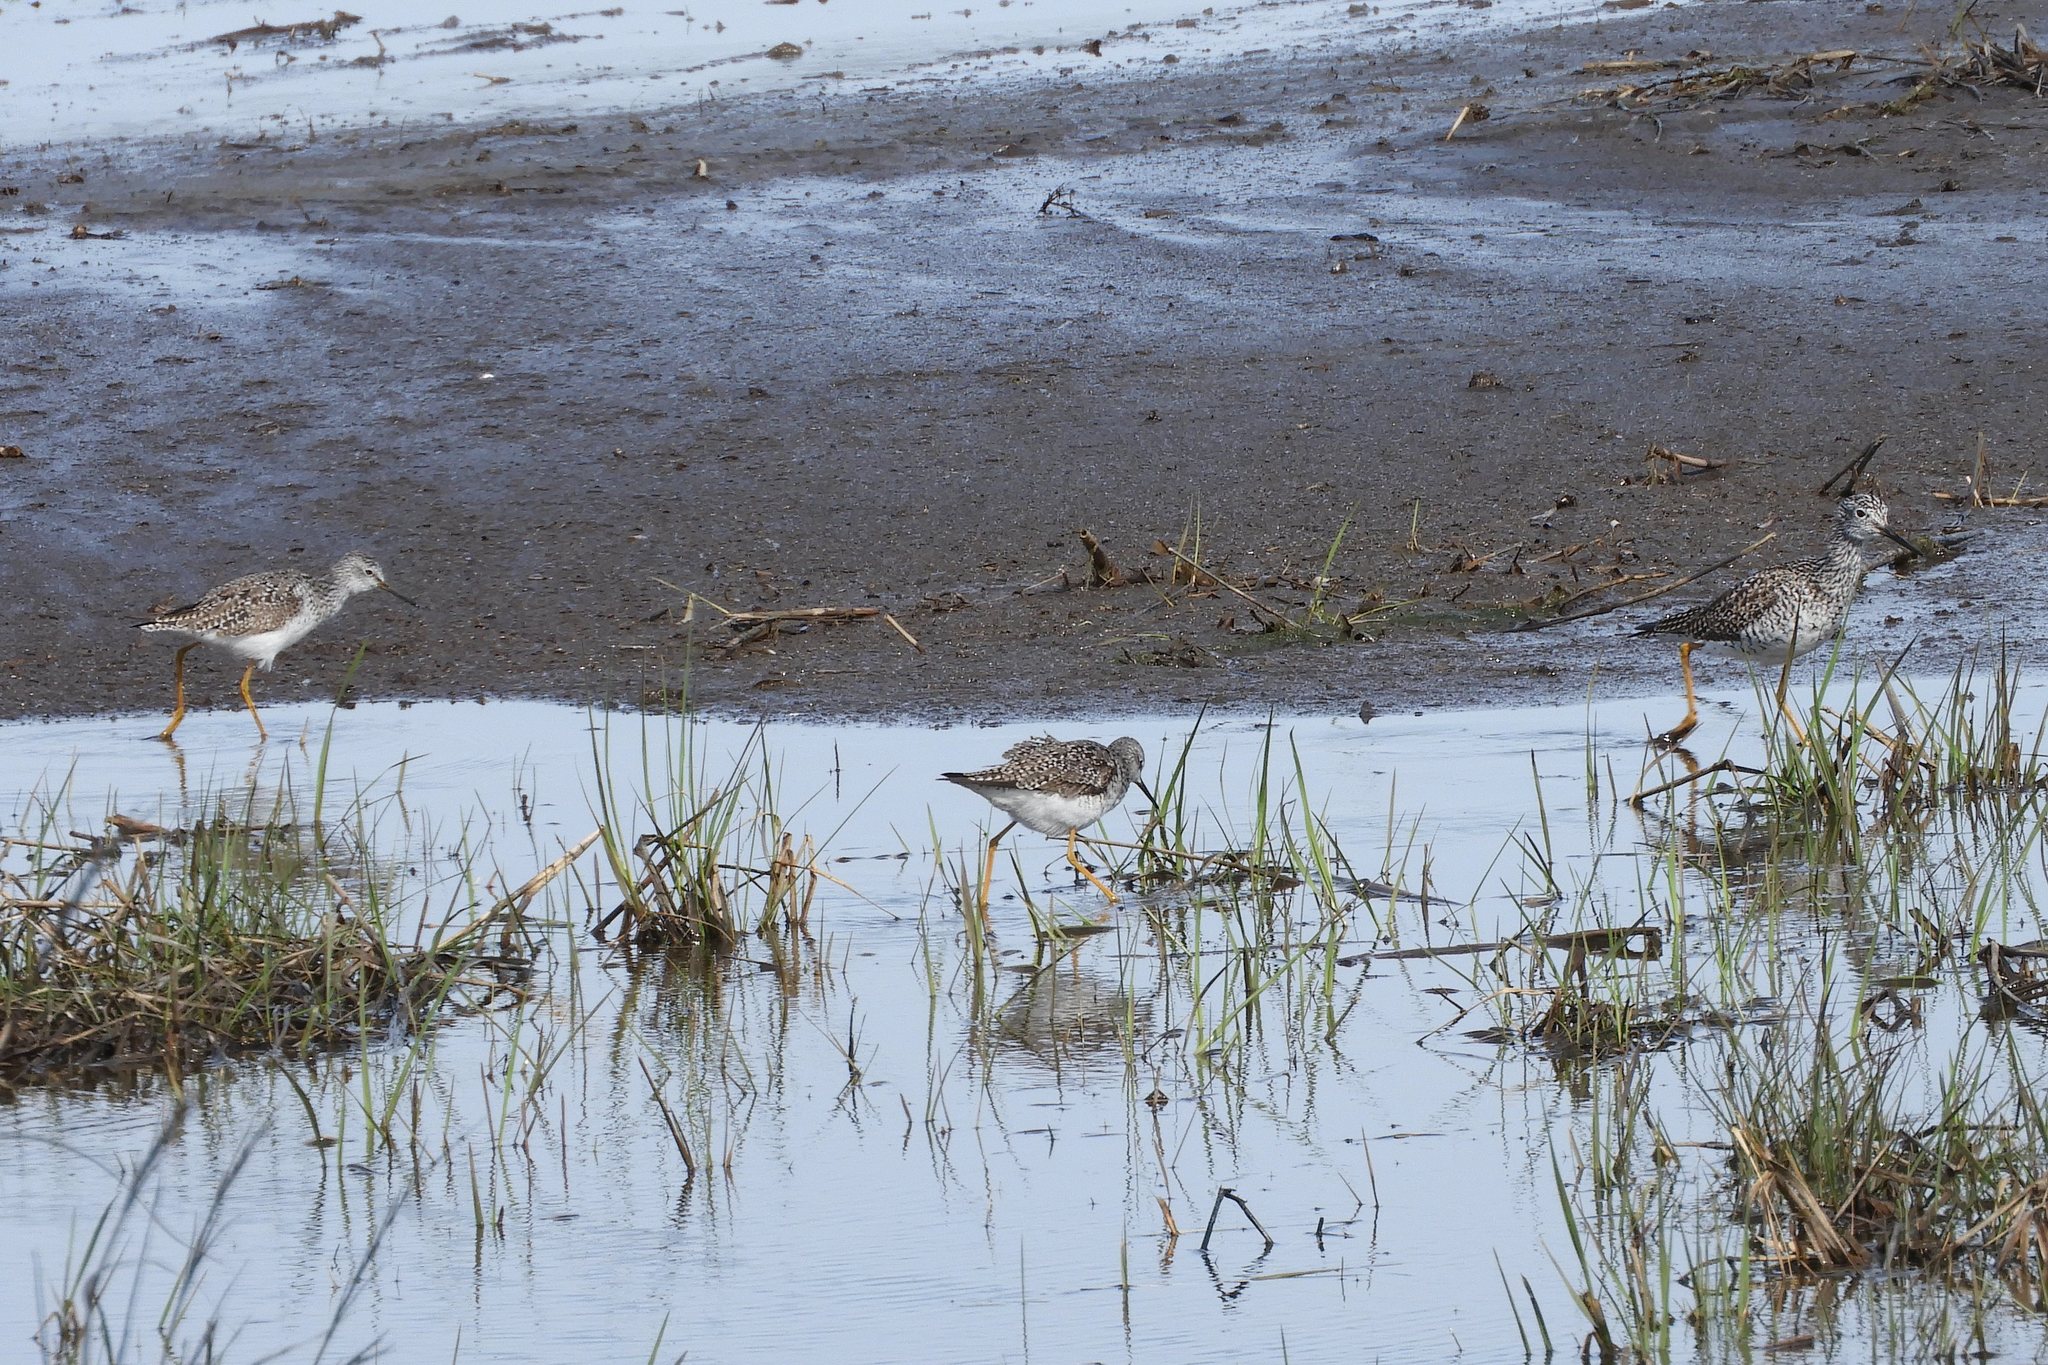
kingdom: Animalia
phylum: Chordata
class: Aves
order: Charadriiformes
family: Scolopacidae
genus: Tringa
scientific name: Tringa flavipes
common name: Lesser yellowlegs
